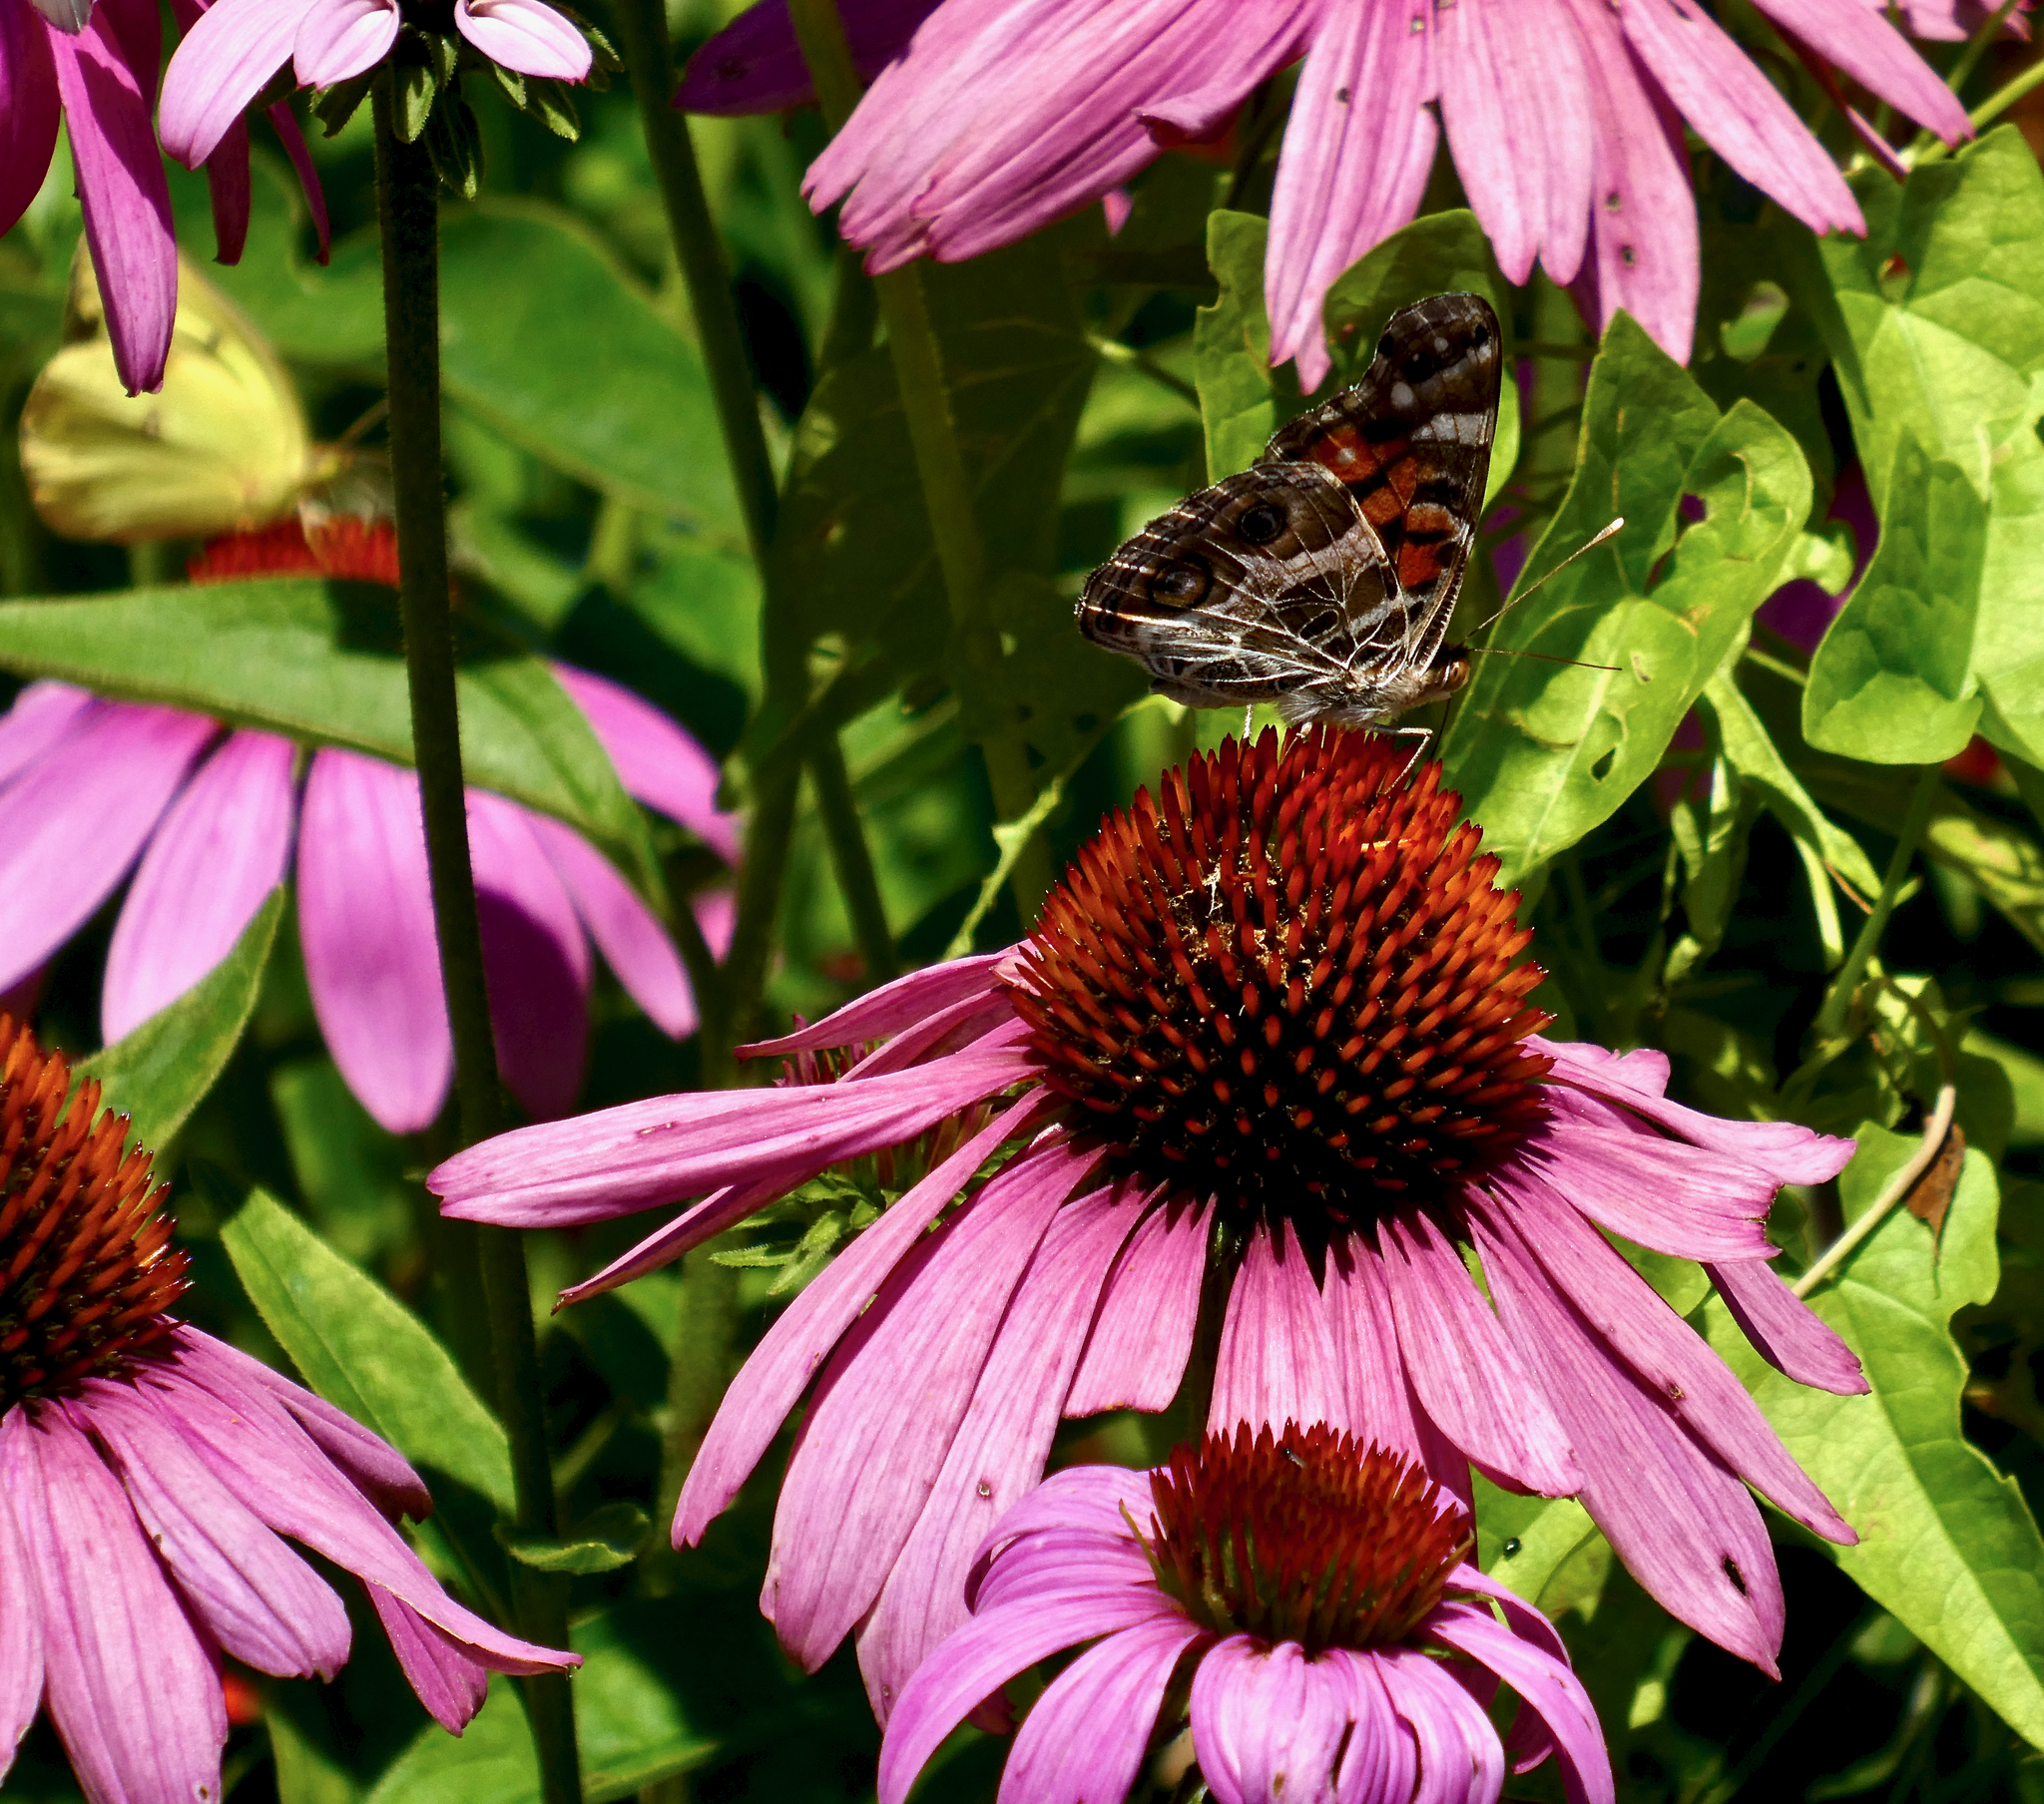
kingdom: Animalia
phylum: Arthropoda
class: Insecta
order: Lepidoptera
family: Nymphalidae
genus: Vanessa
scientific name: Vanessa virginiensis
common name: American lady
